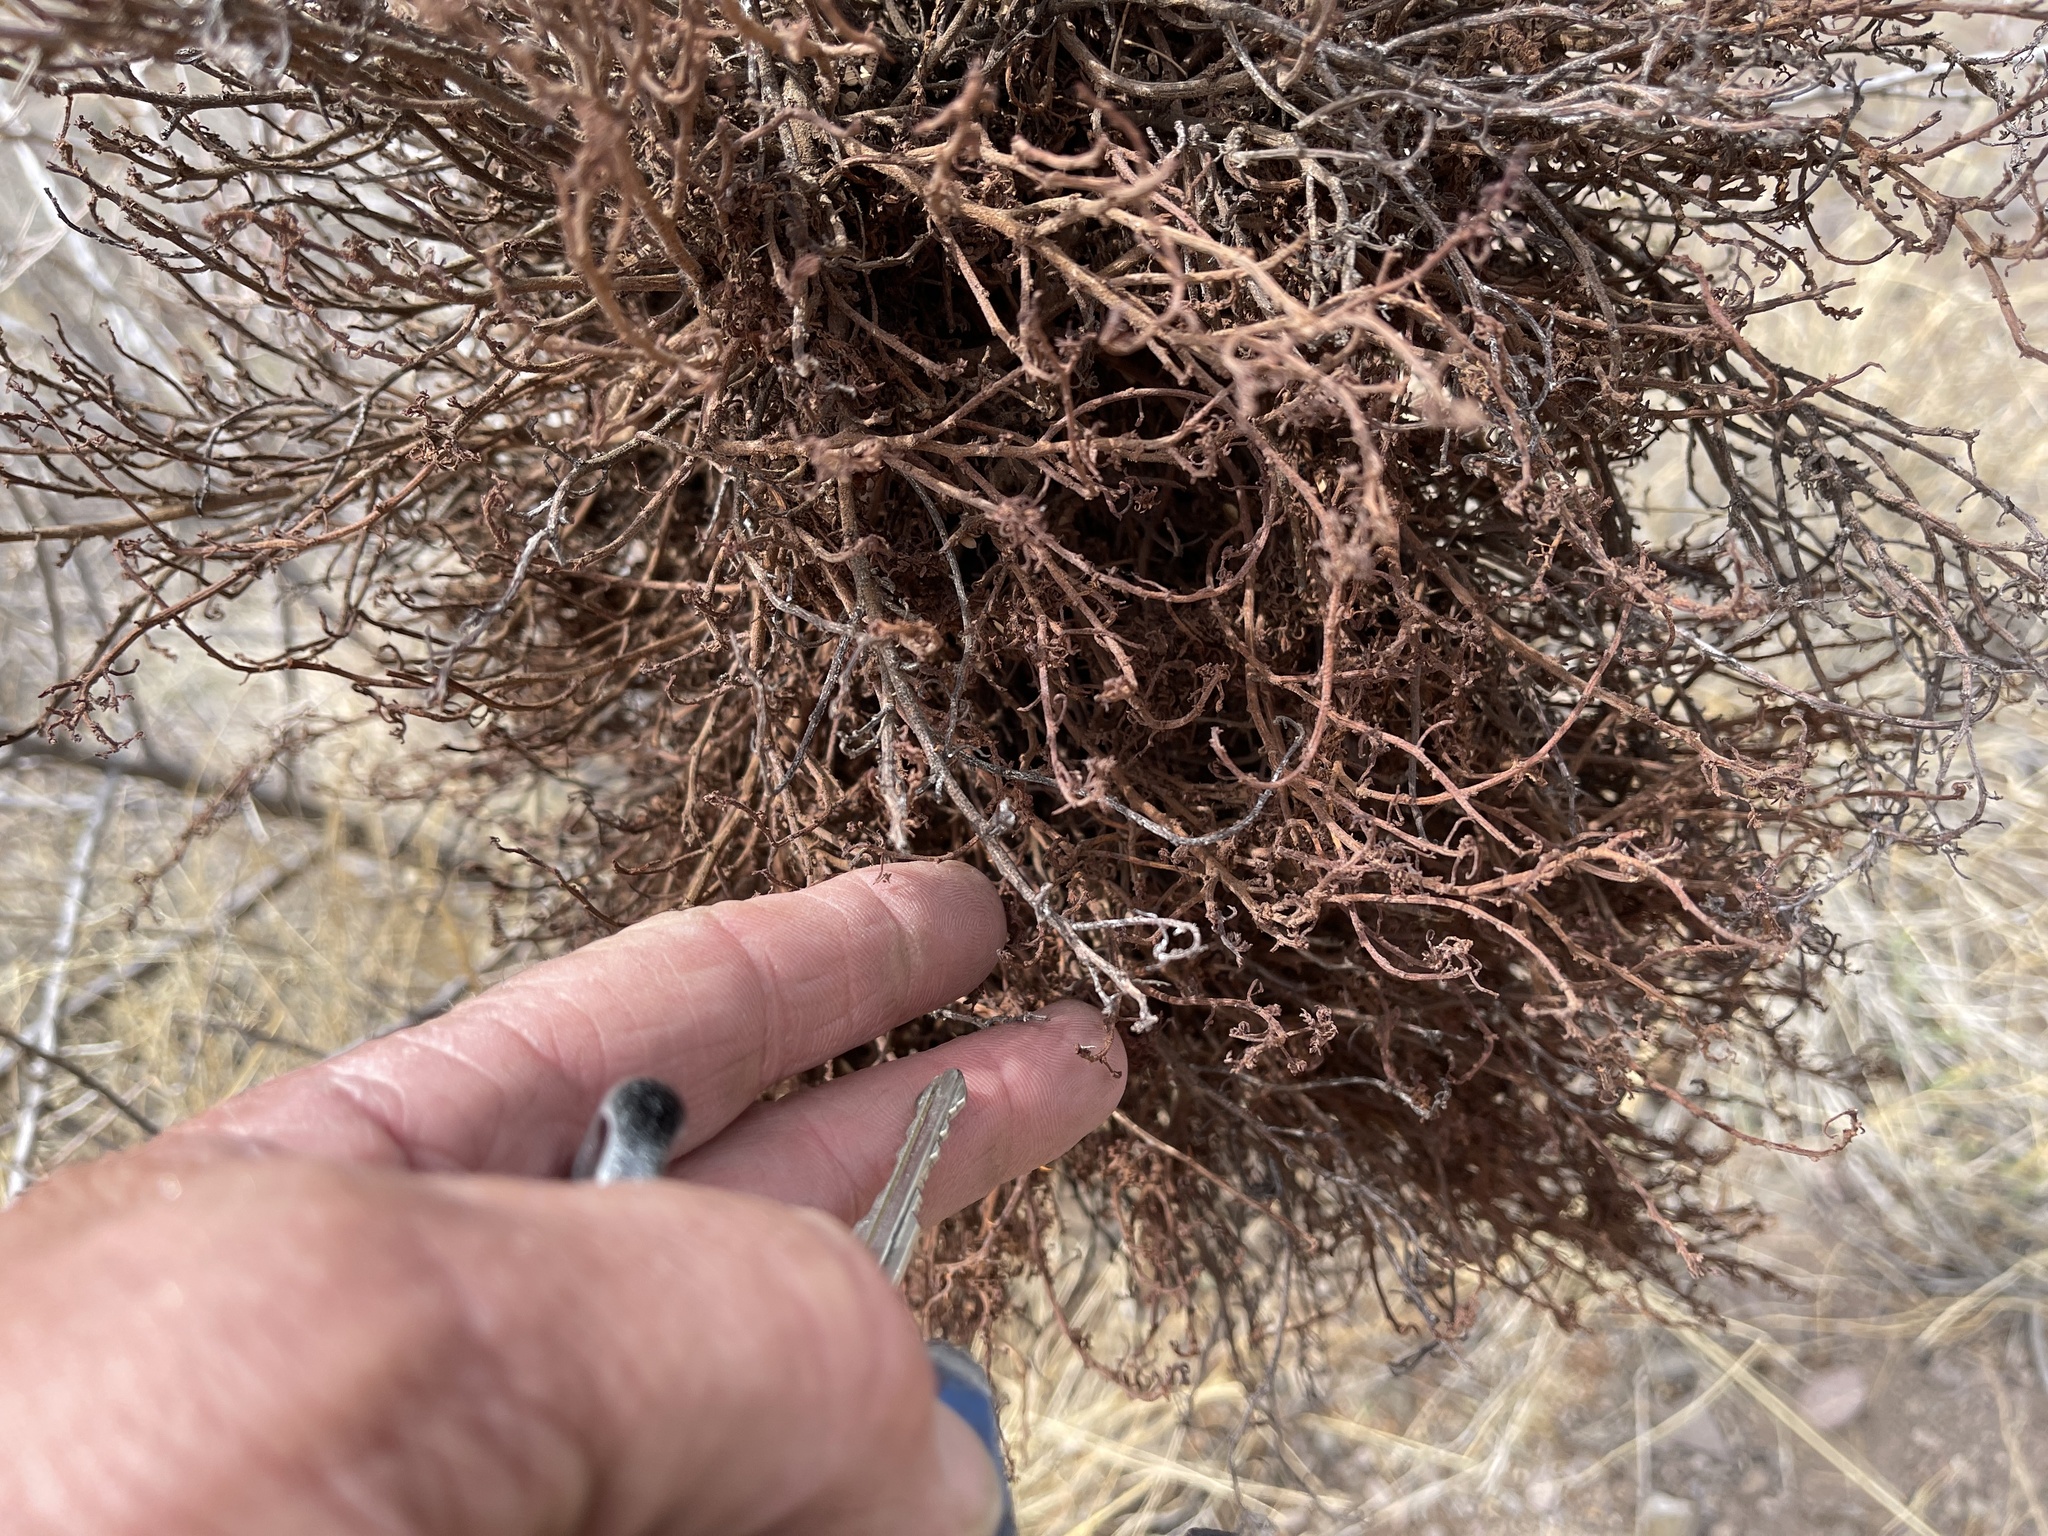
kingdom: Plantae
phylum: Tracheophyta
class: Magnoliopsida
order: Santalales
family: Viscaceae
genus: Phoradendron
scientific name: Phoradendron californicum
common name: Acacia mistletoe
